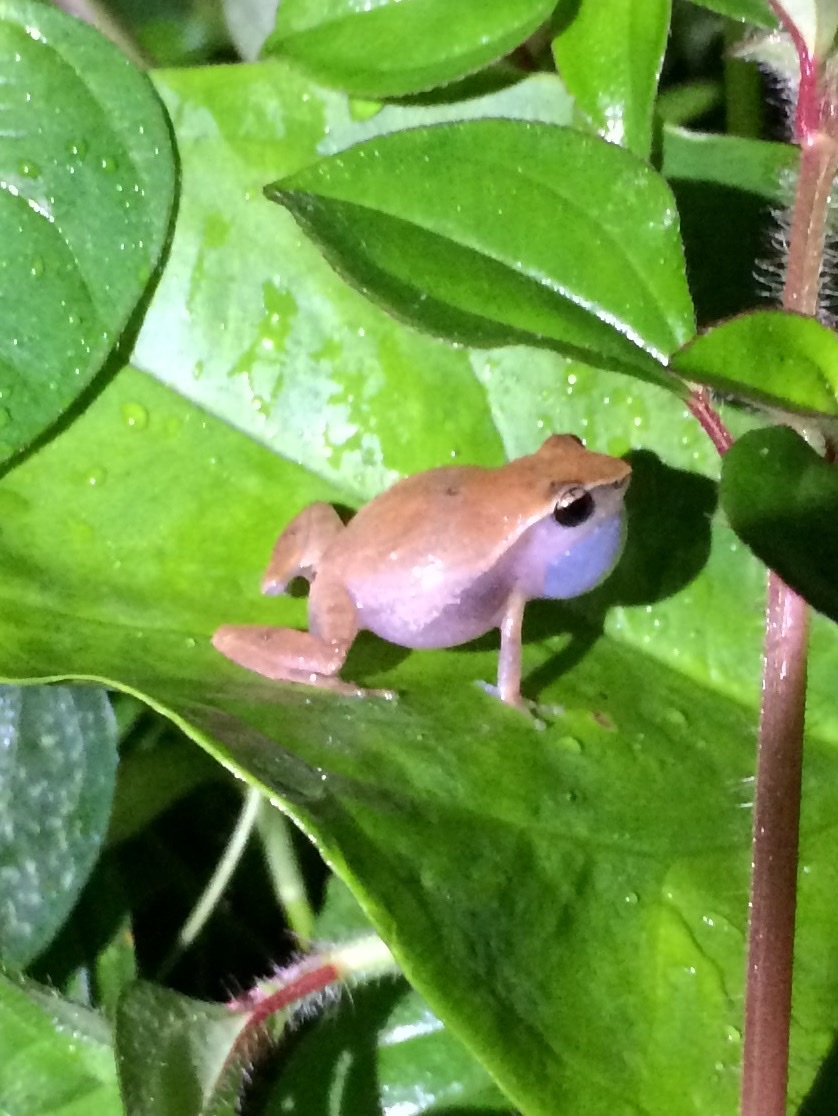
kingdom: Animalia
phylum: Chordata
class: Amphibia
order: Anura
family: Eleutherodactylidae
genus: Eleutherodactylus
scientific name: Eleutherodactylus brittoni
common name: Grass coqui
